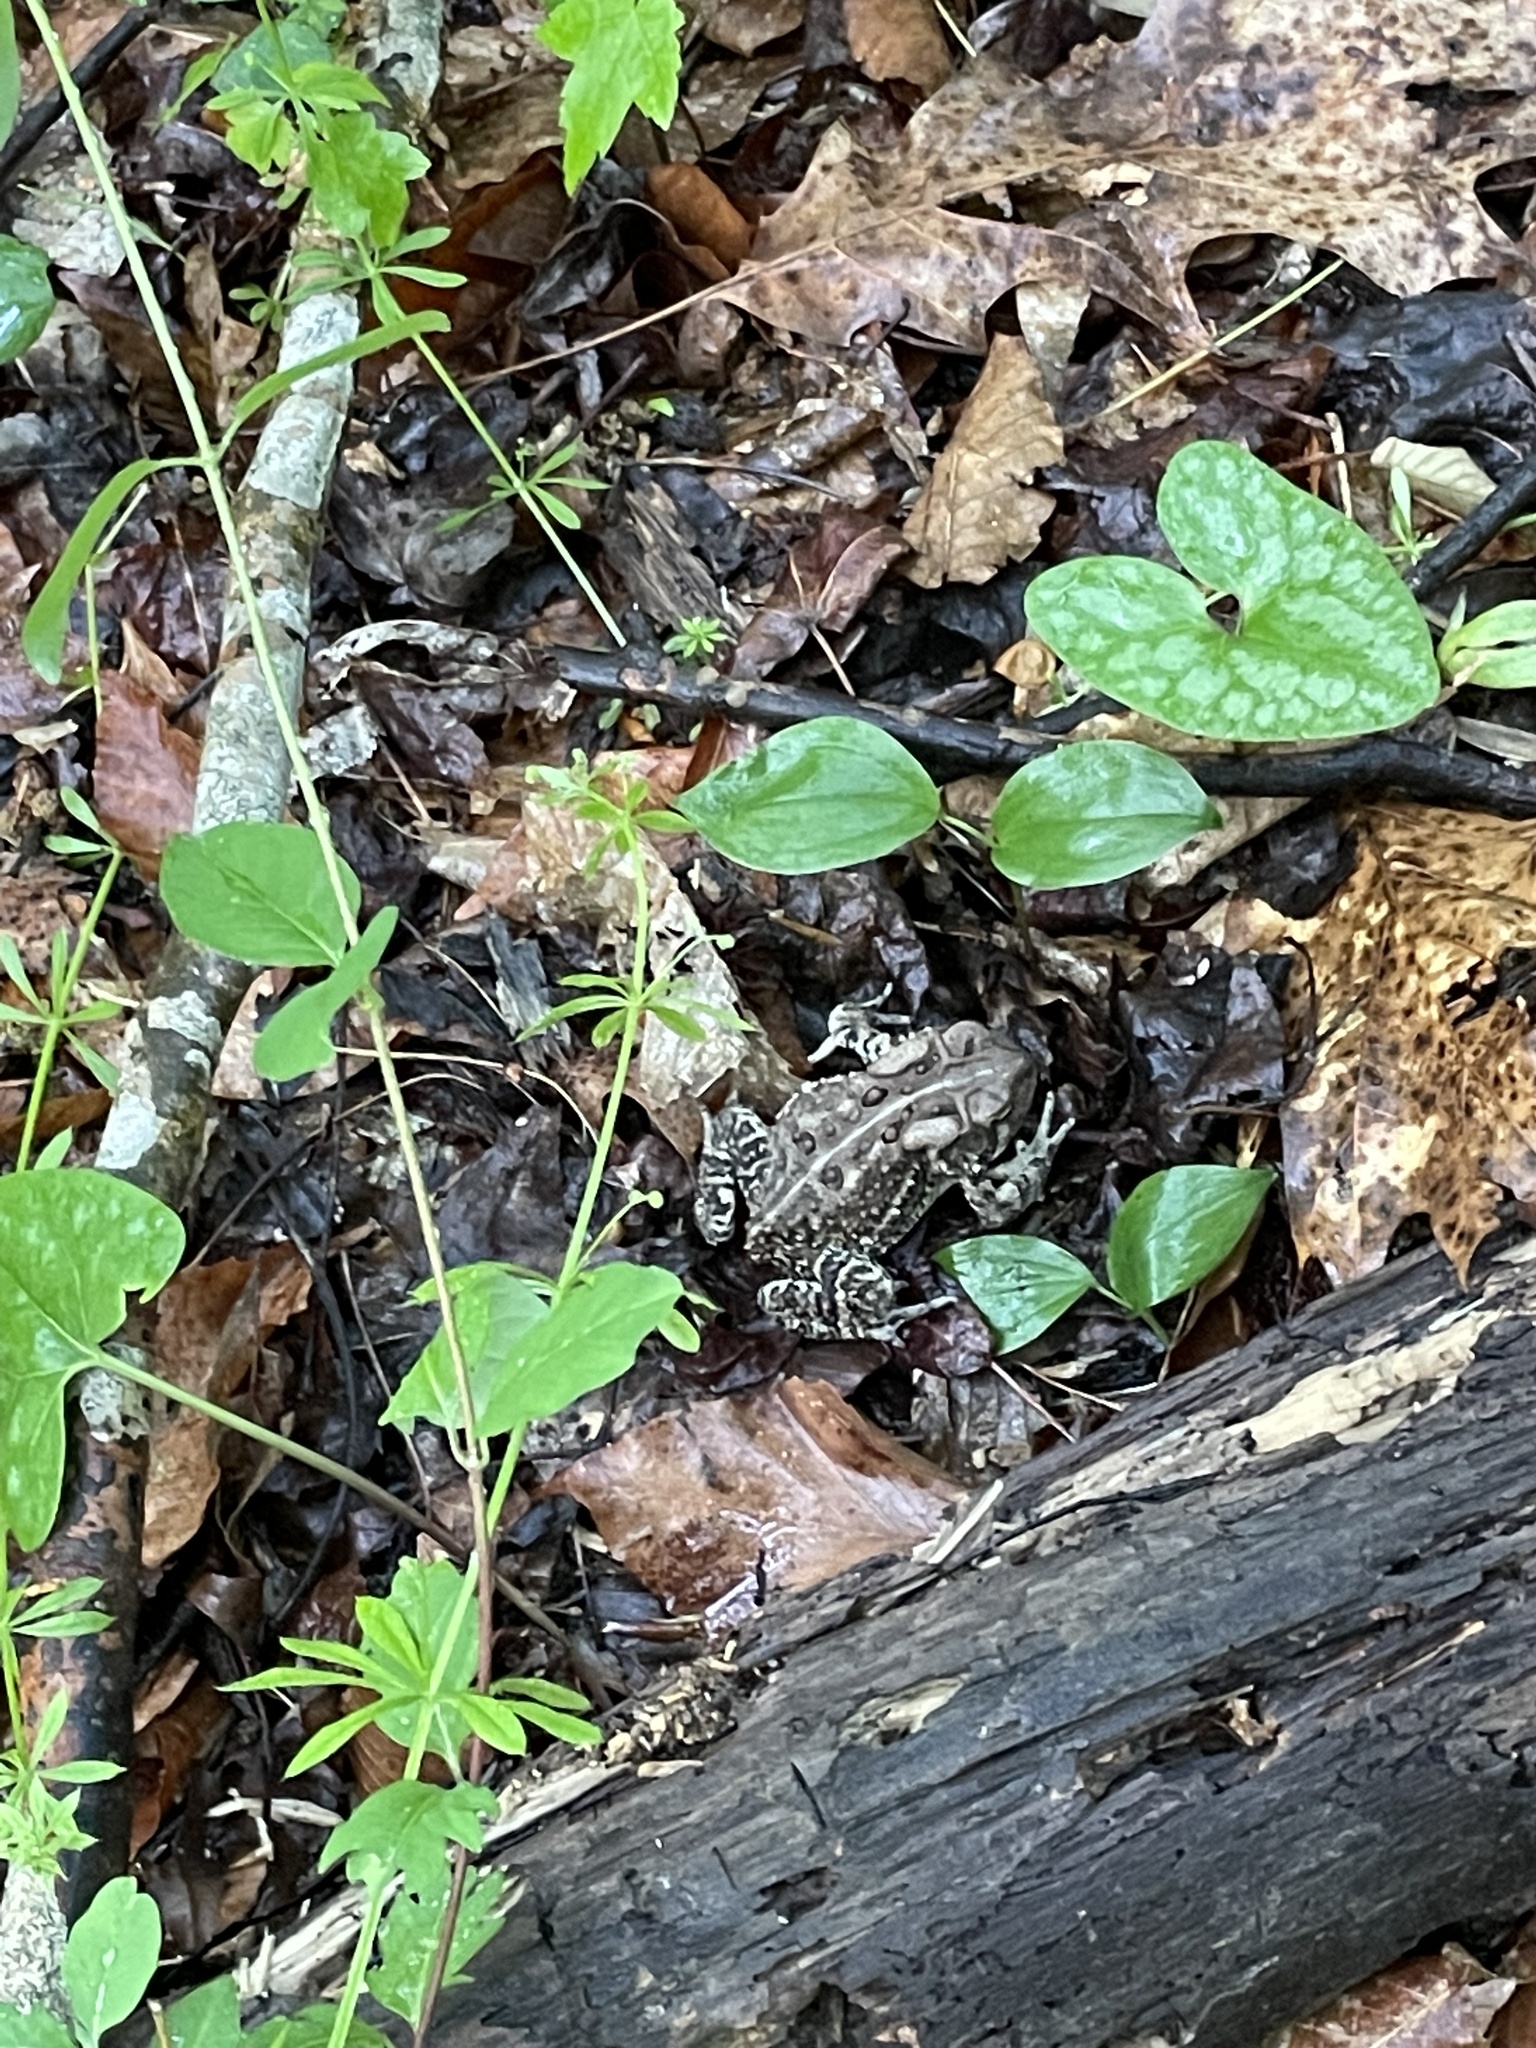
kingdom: Animalia
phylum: Chordata
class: Amphibia
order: Anura
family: Bufonidae
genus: Anaxyrus
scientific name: Anaxyrus americanus
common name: American toad
